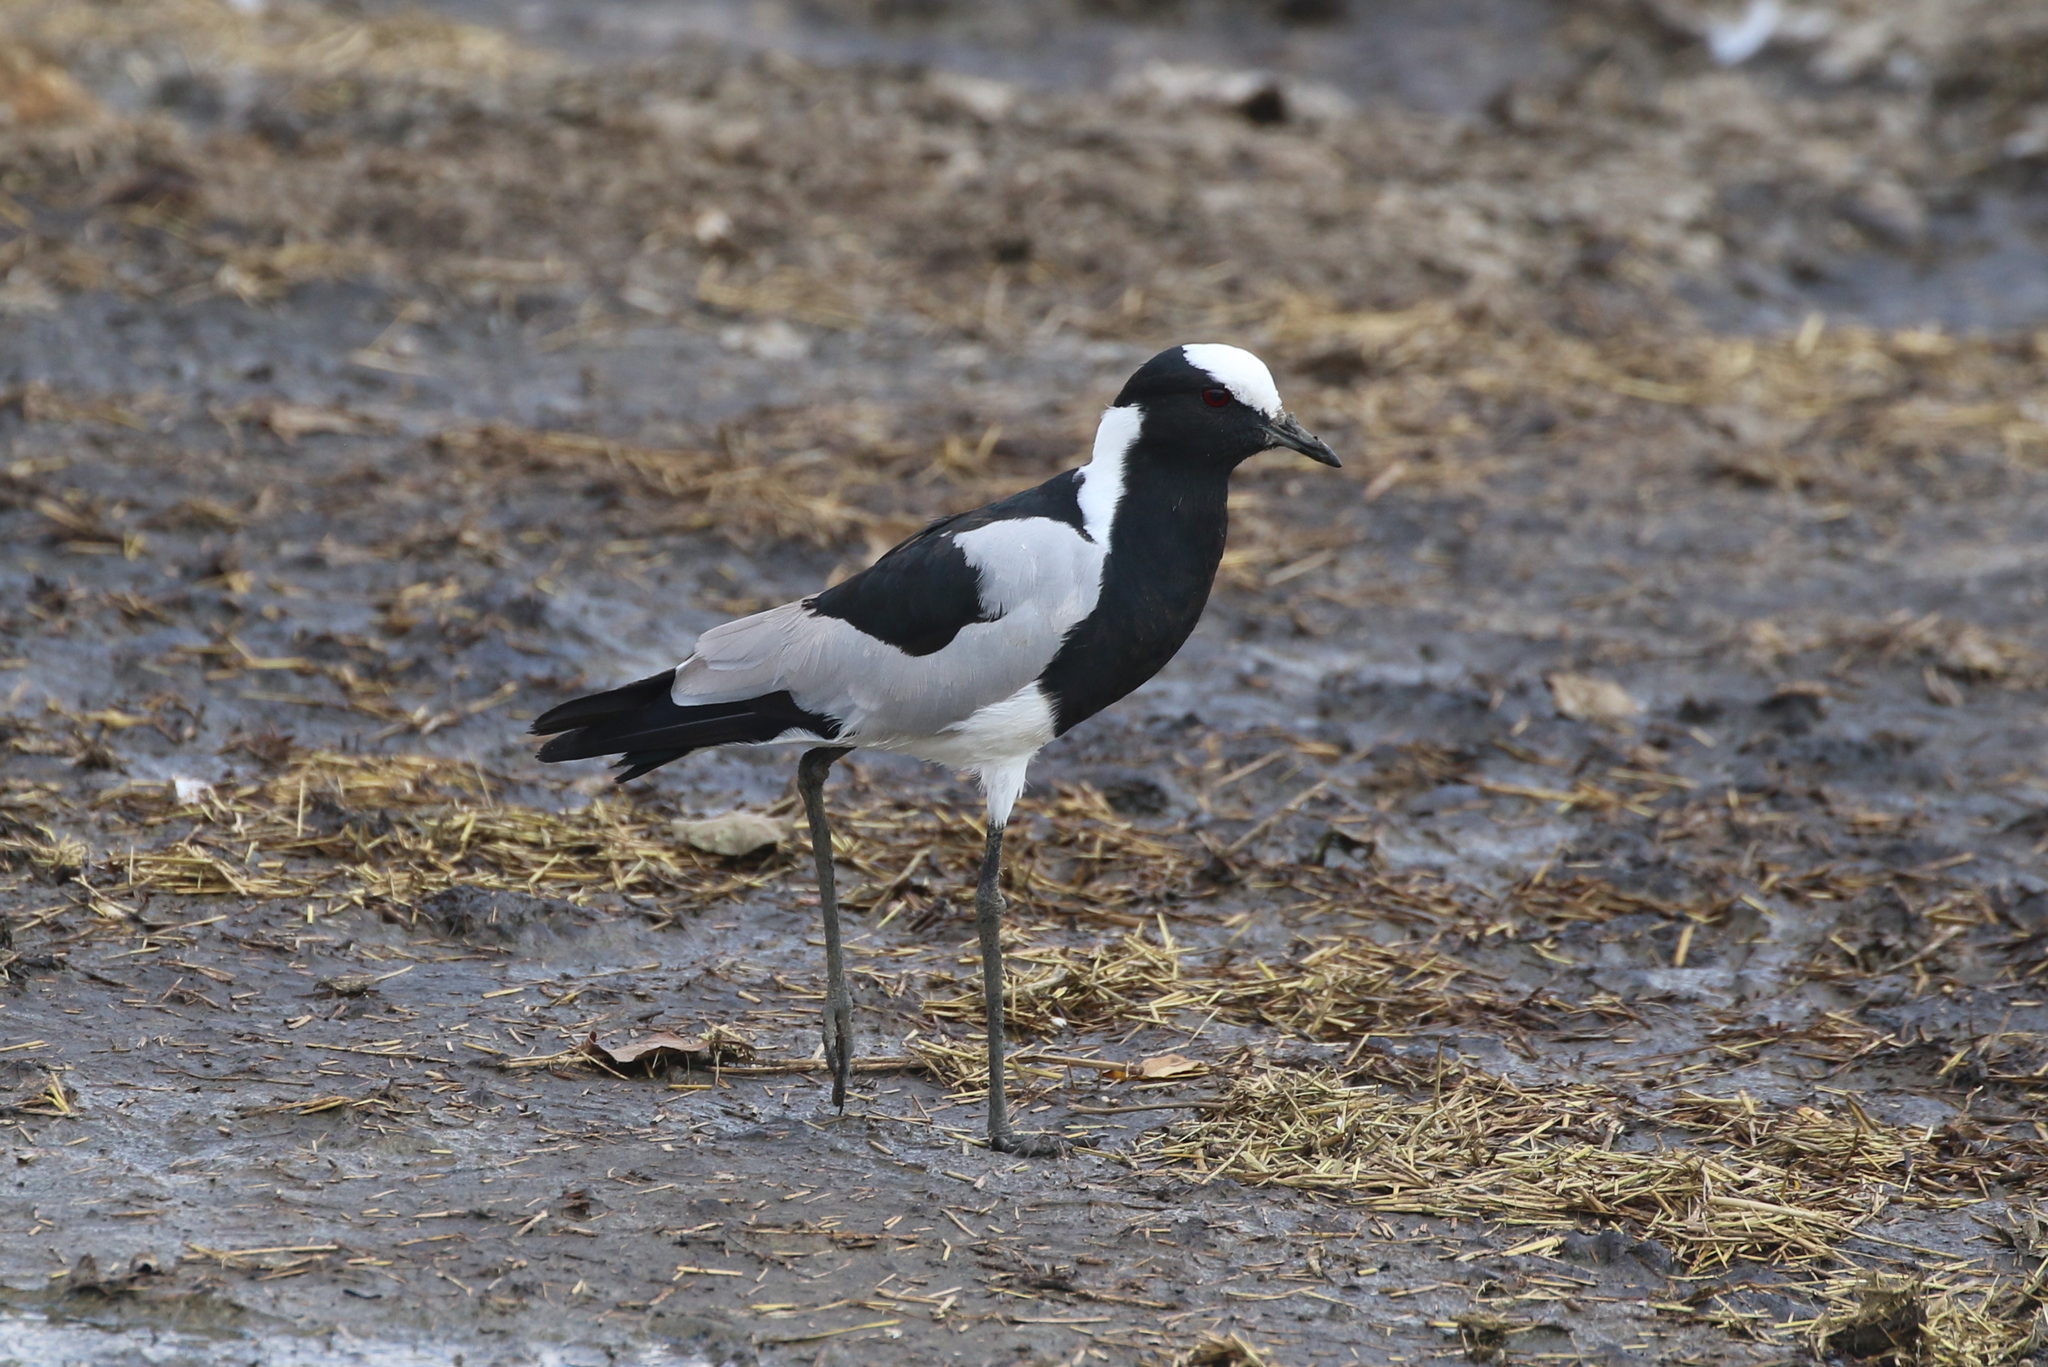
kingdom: Animalia
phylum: Chordata
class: Aves
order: Charadriiformes
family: Charadriidae
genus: Vanellus
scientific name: Vanellus armatus
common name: Blacksmith lapwing
